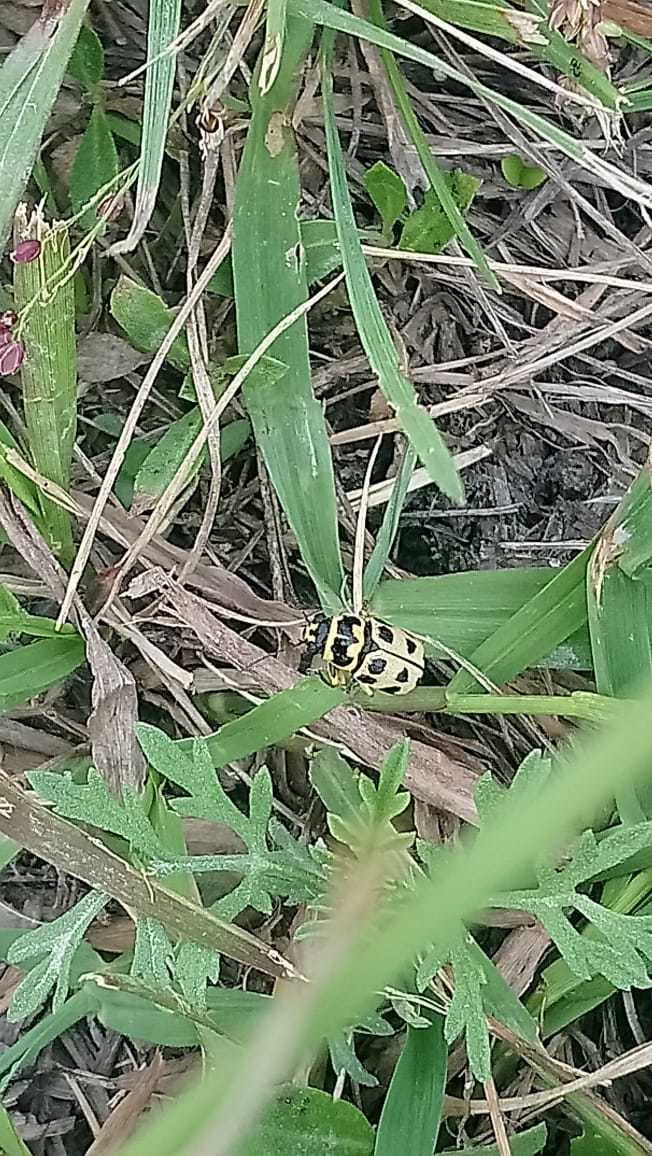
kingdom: Animalia
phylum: Arthropoda
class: Insecta
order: Coleoptera
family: Chrysomelidae
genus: Metallactus
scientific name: Metallactus pollens
